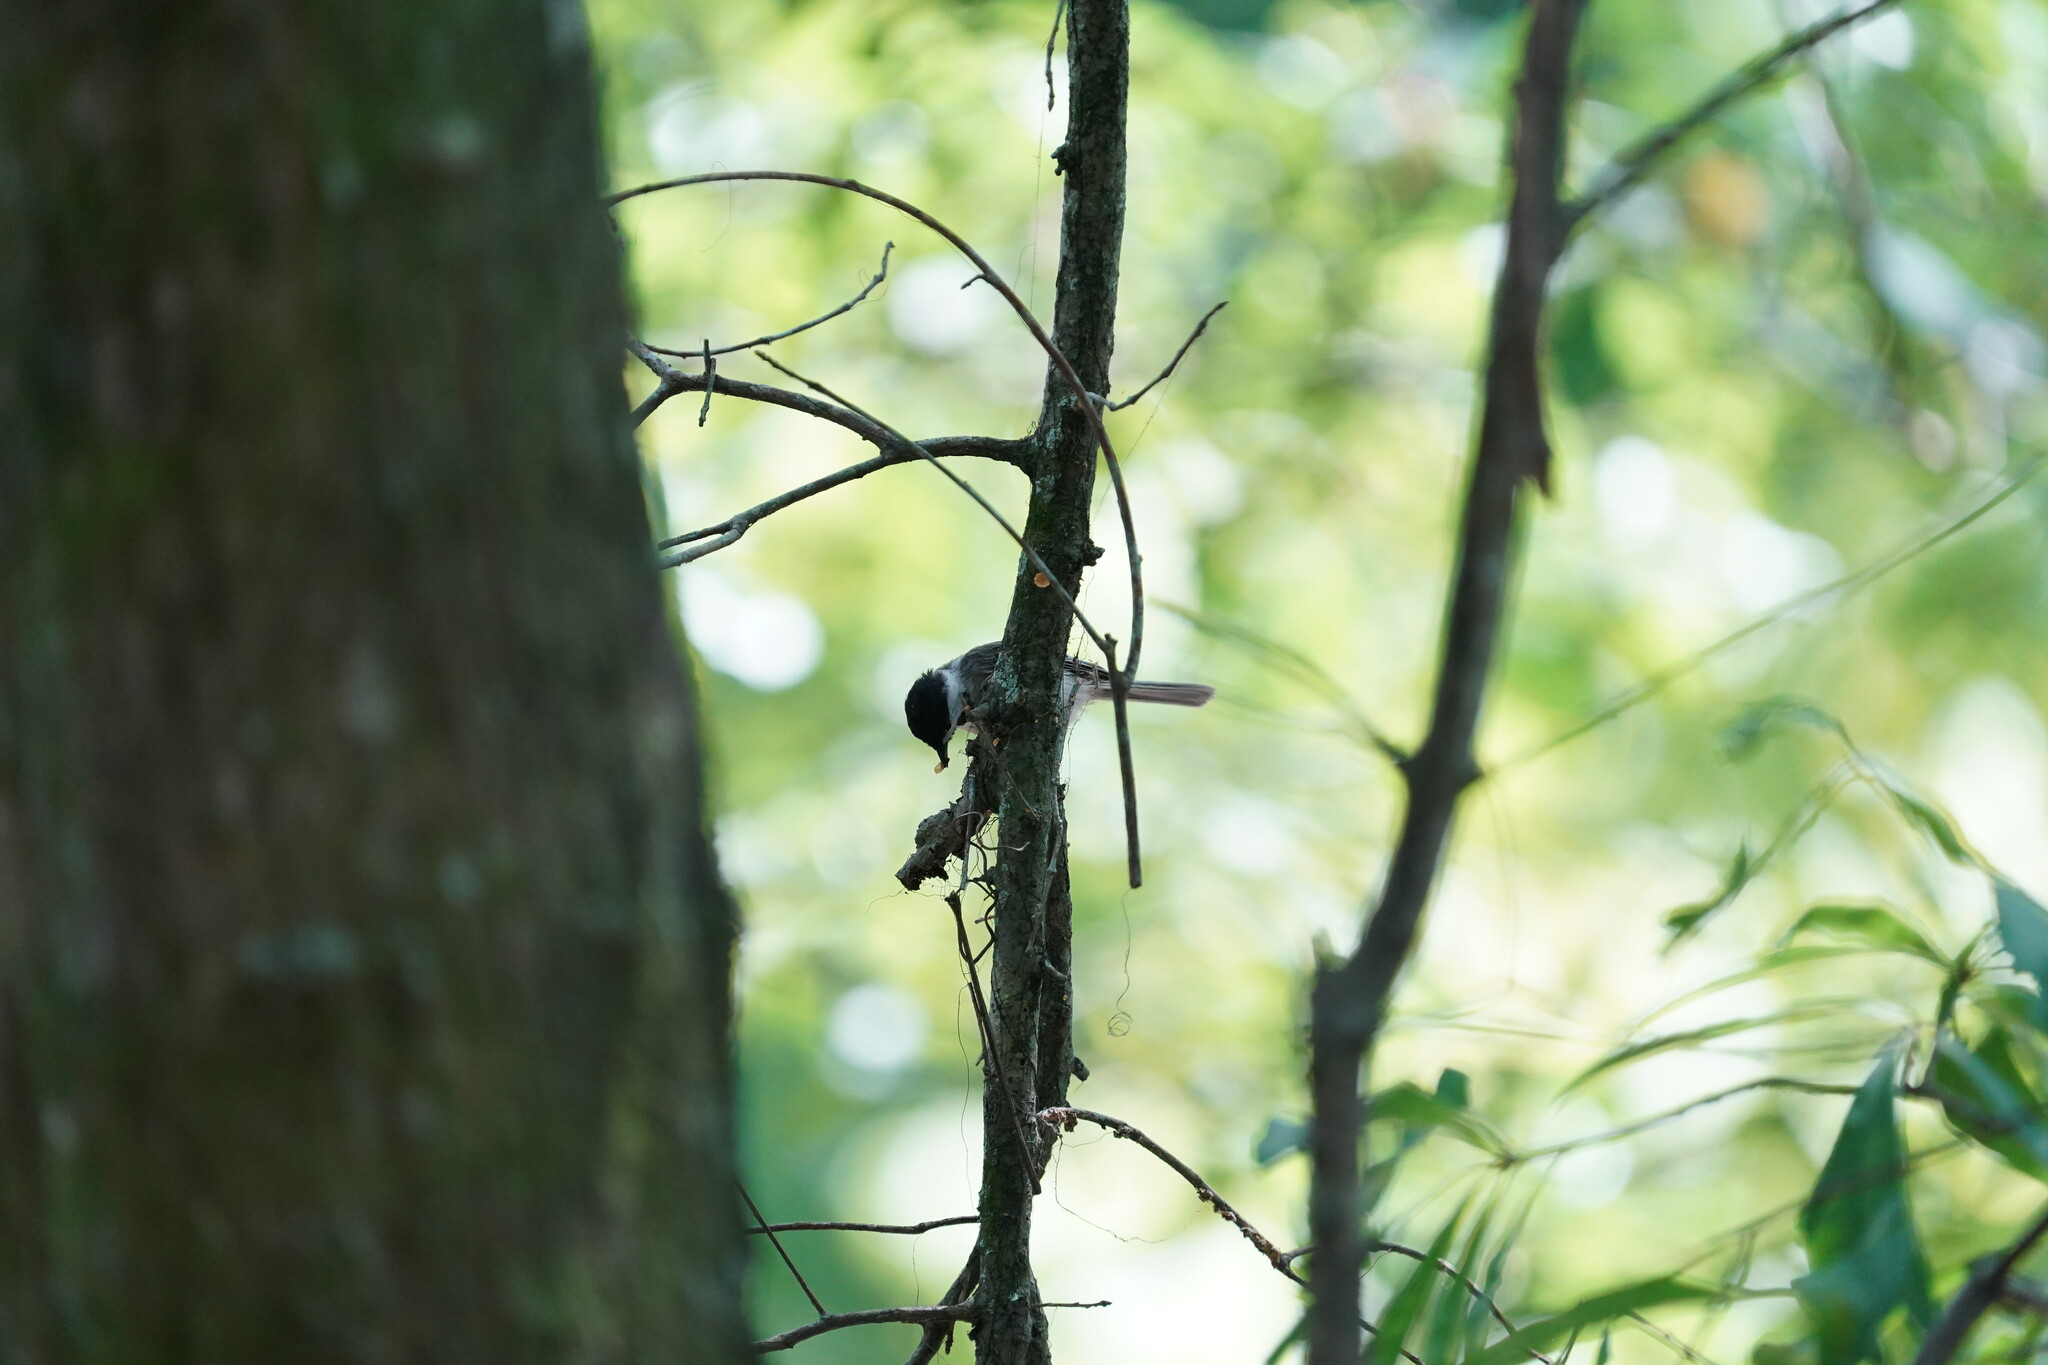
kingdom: Animalia
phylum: Chordata
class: Aves
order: Passeriformes
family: Paridae
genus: Poecile
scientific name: Poecile carolinensis
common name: Carolina chickadee
